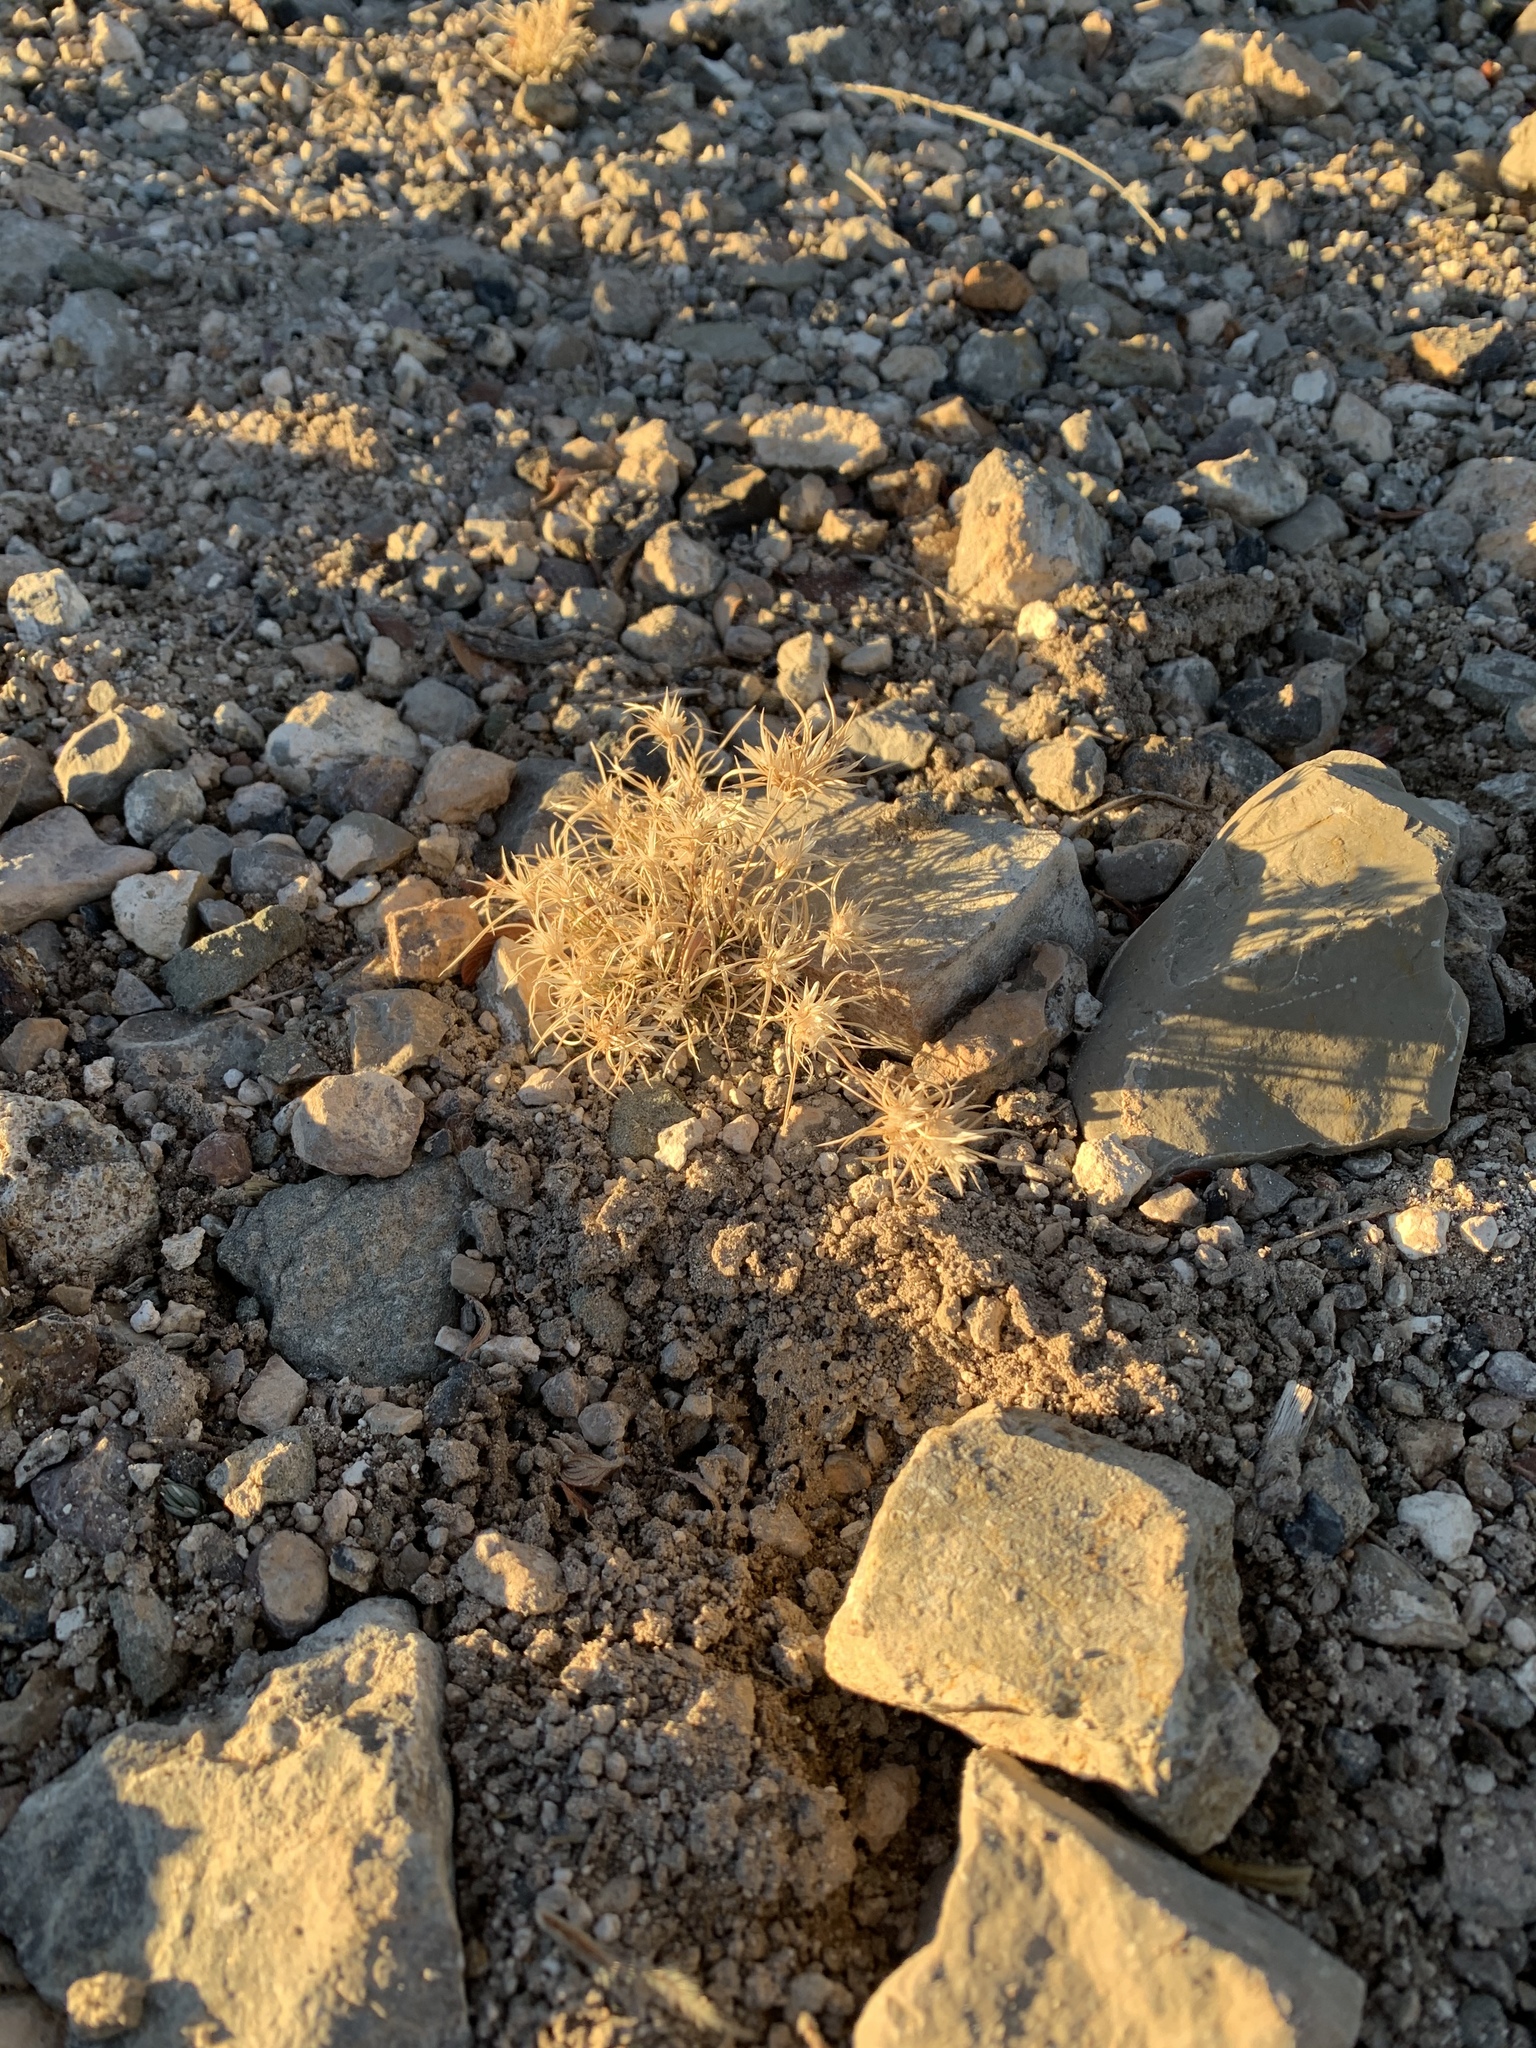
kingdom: Plantae
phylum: Tracheophyta
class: Liliopsida
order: Poales
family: Poaceae
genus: Dasyochloa
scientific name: Dasyochloa pulchella
